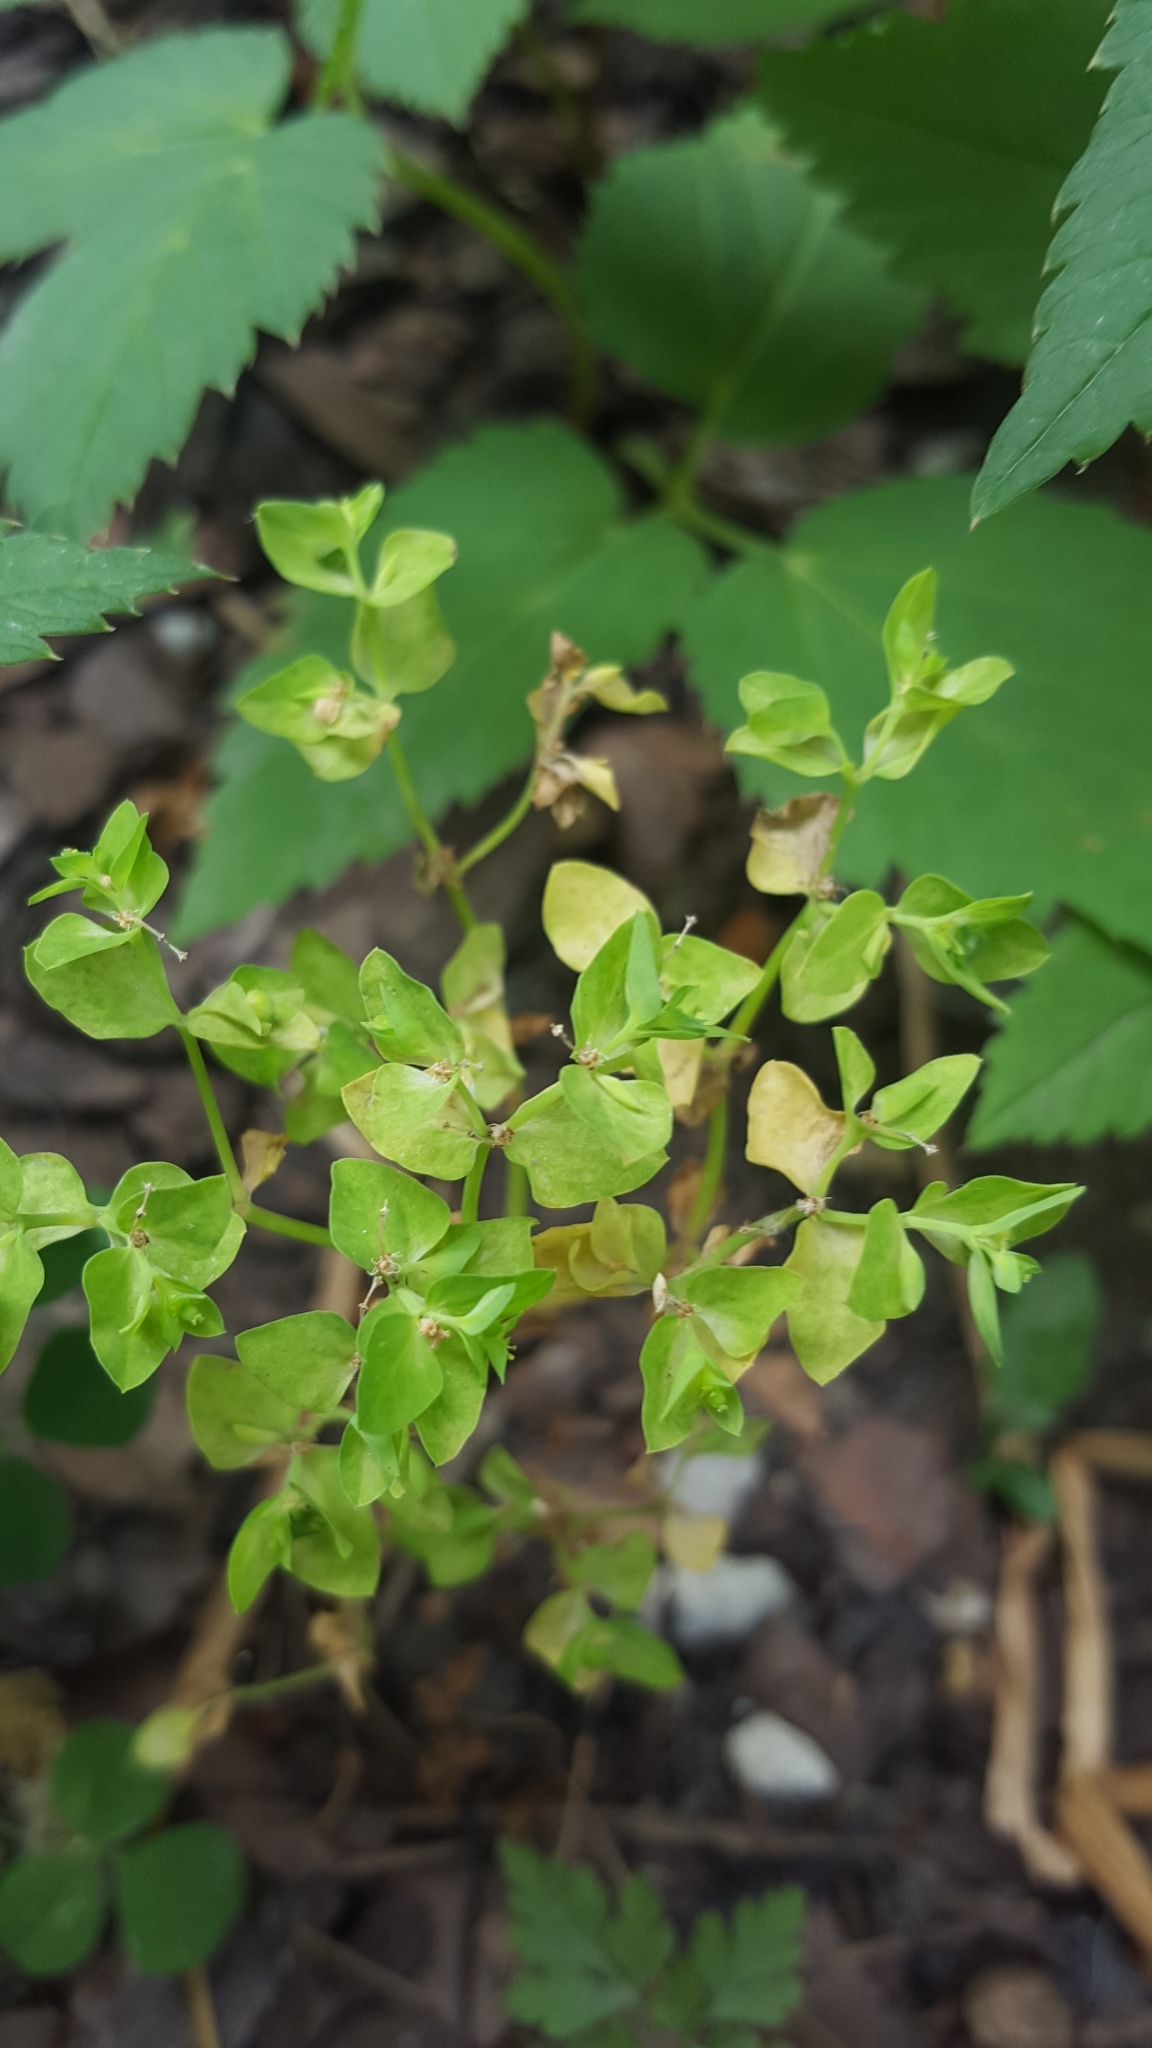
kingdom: Plantae
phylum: Tracheophyta
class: Magnoliopsida
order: Malpighiales
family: Euphorbiaceae
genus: Euphorbia
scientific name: Euphorbia peplus
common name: Petty spurge
